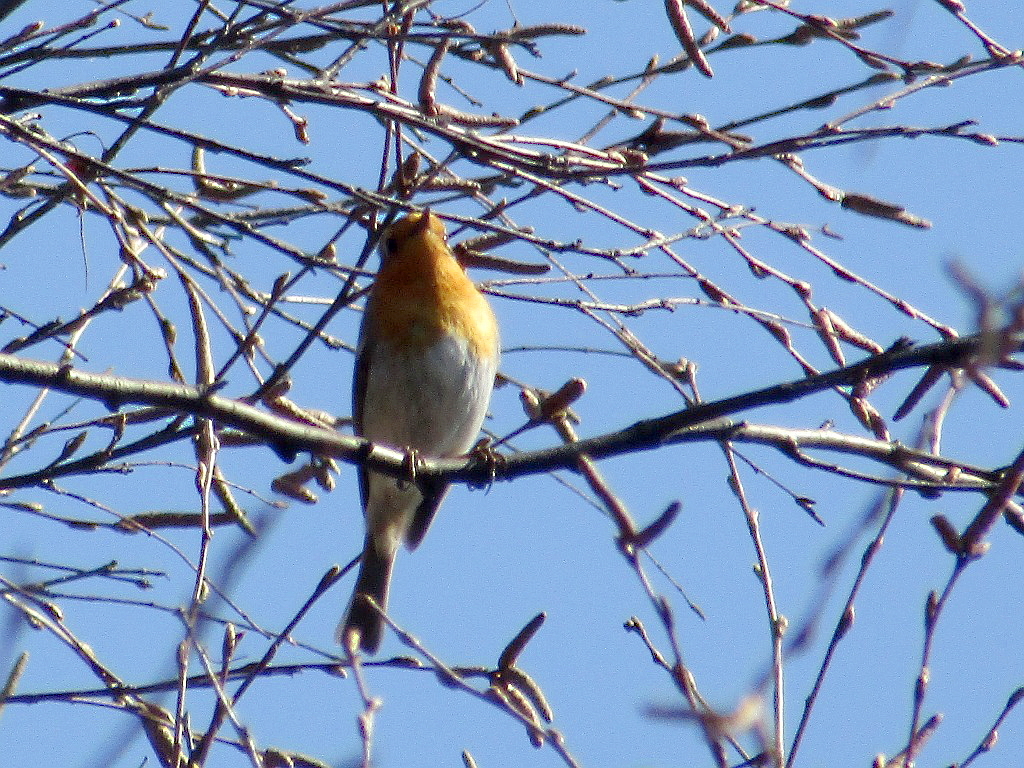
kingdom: Animalia
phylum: Chordata
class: Aves
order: Passeriformes
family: Muscicapidae
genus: Erithacus
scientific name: Erithacus rubecula
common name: European robin
